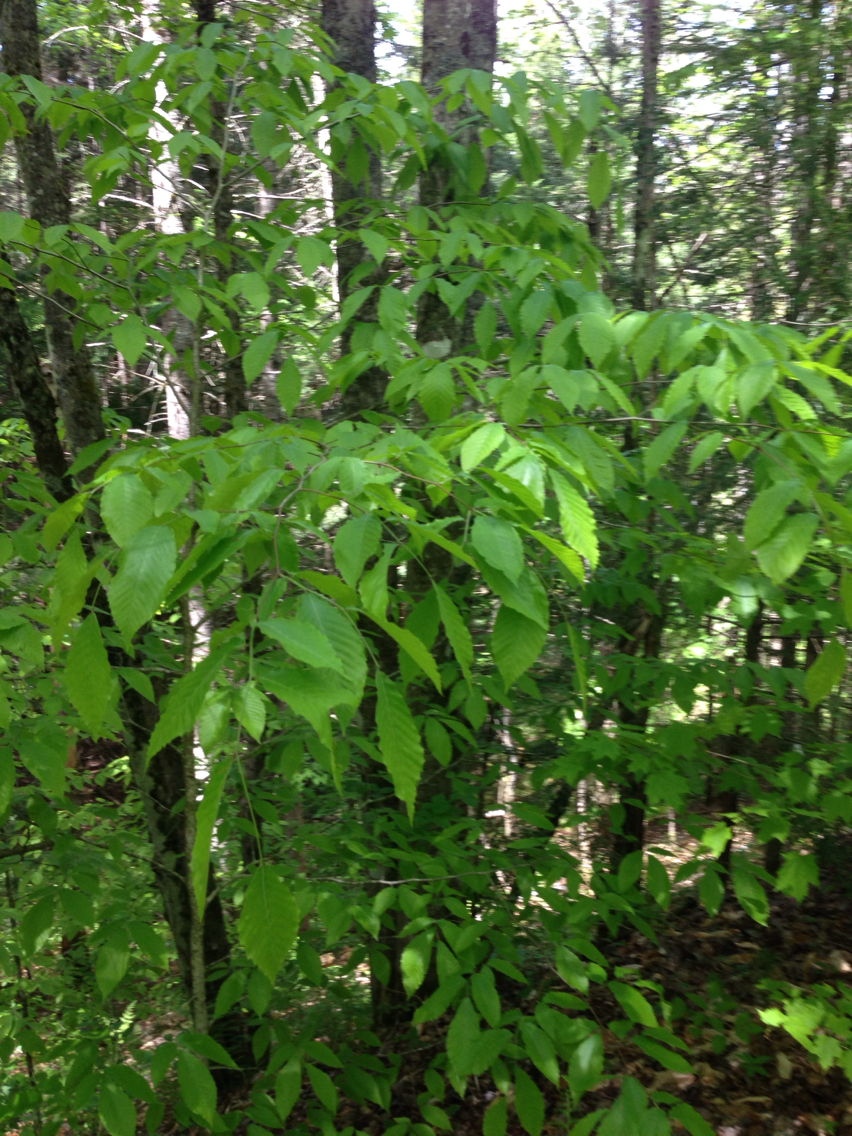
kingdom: Plantae
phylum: Tracheophyta
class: Magnoliopsida
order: Fagales
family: Fagaceae
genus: Fagus
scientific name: Fagus grandifolia
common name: American beech
